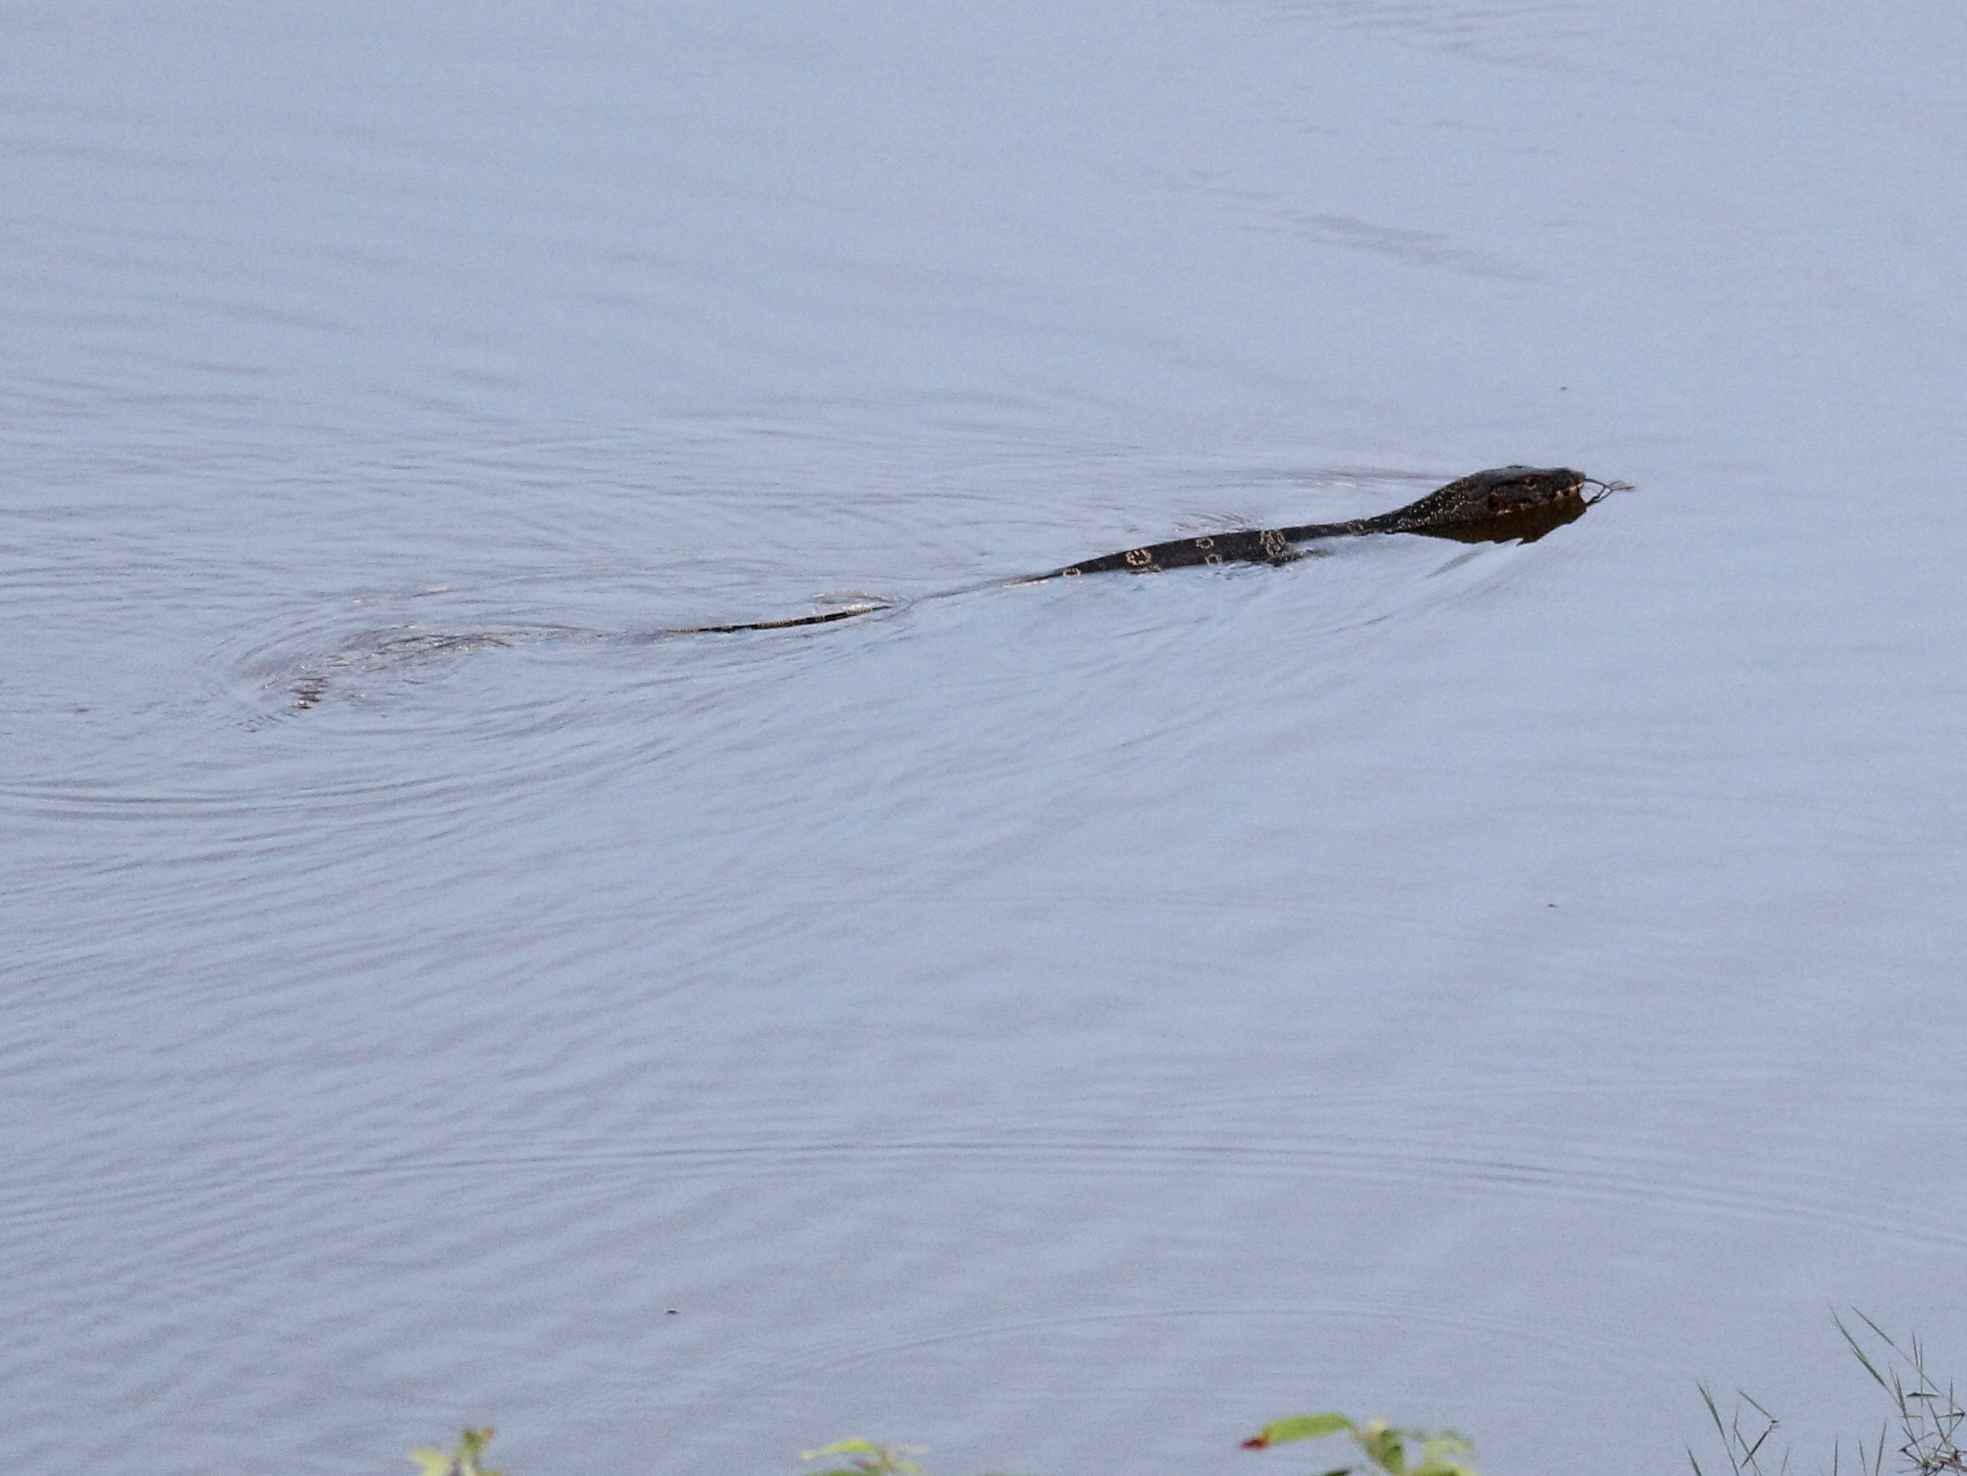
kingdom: Animalia
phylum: Chordata
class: Squamata
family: Varanidae
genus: Varanus
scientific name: Varanus salvator
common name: Common water monitor
